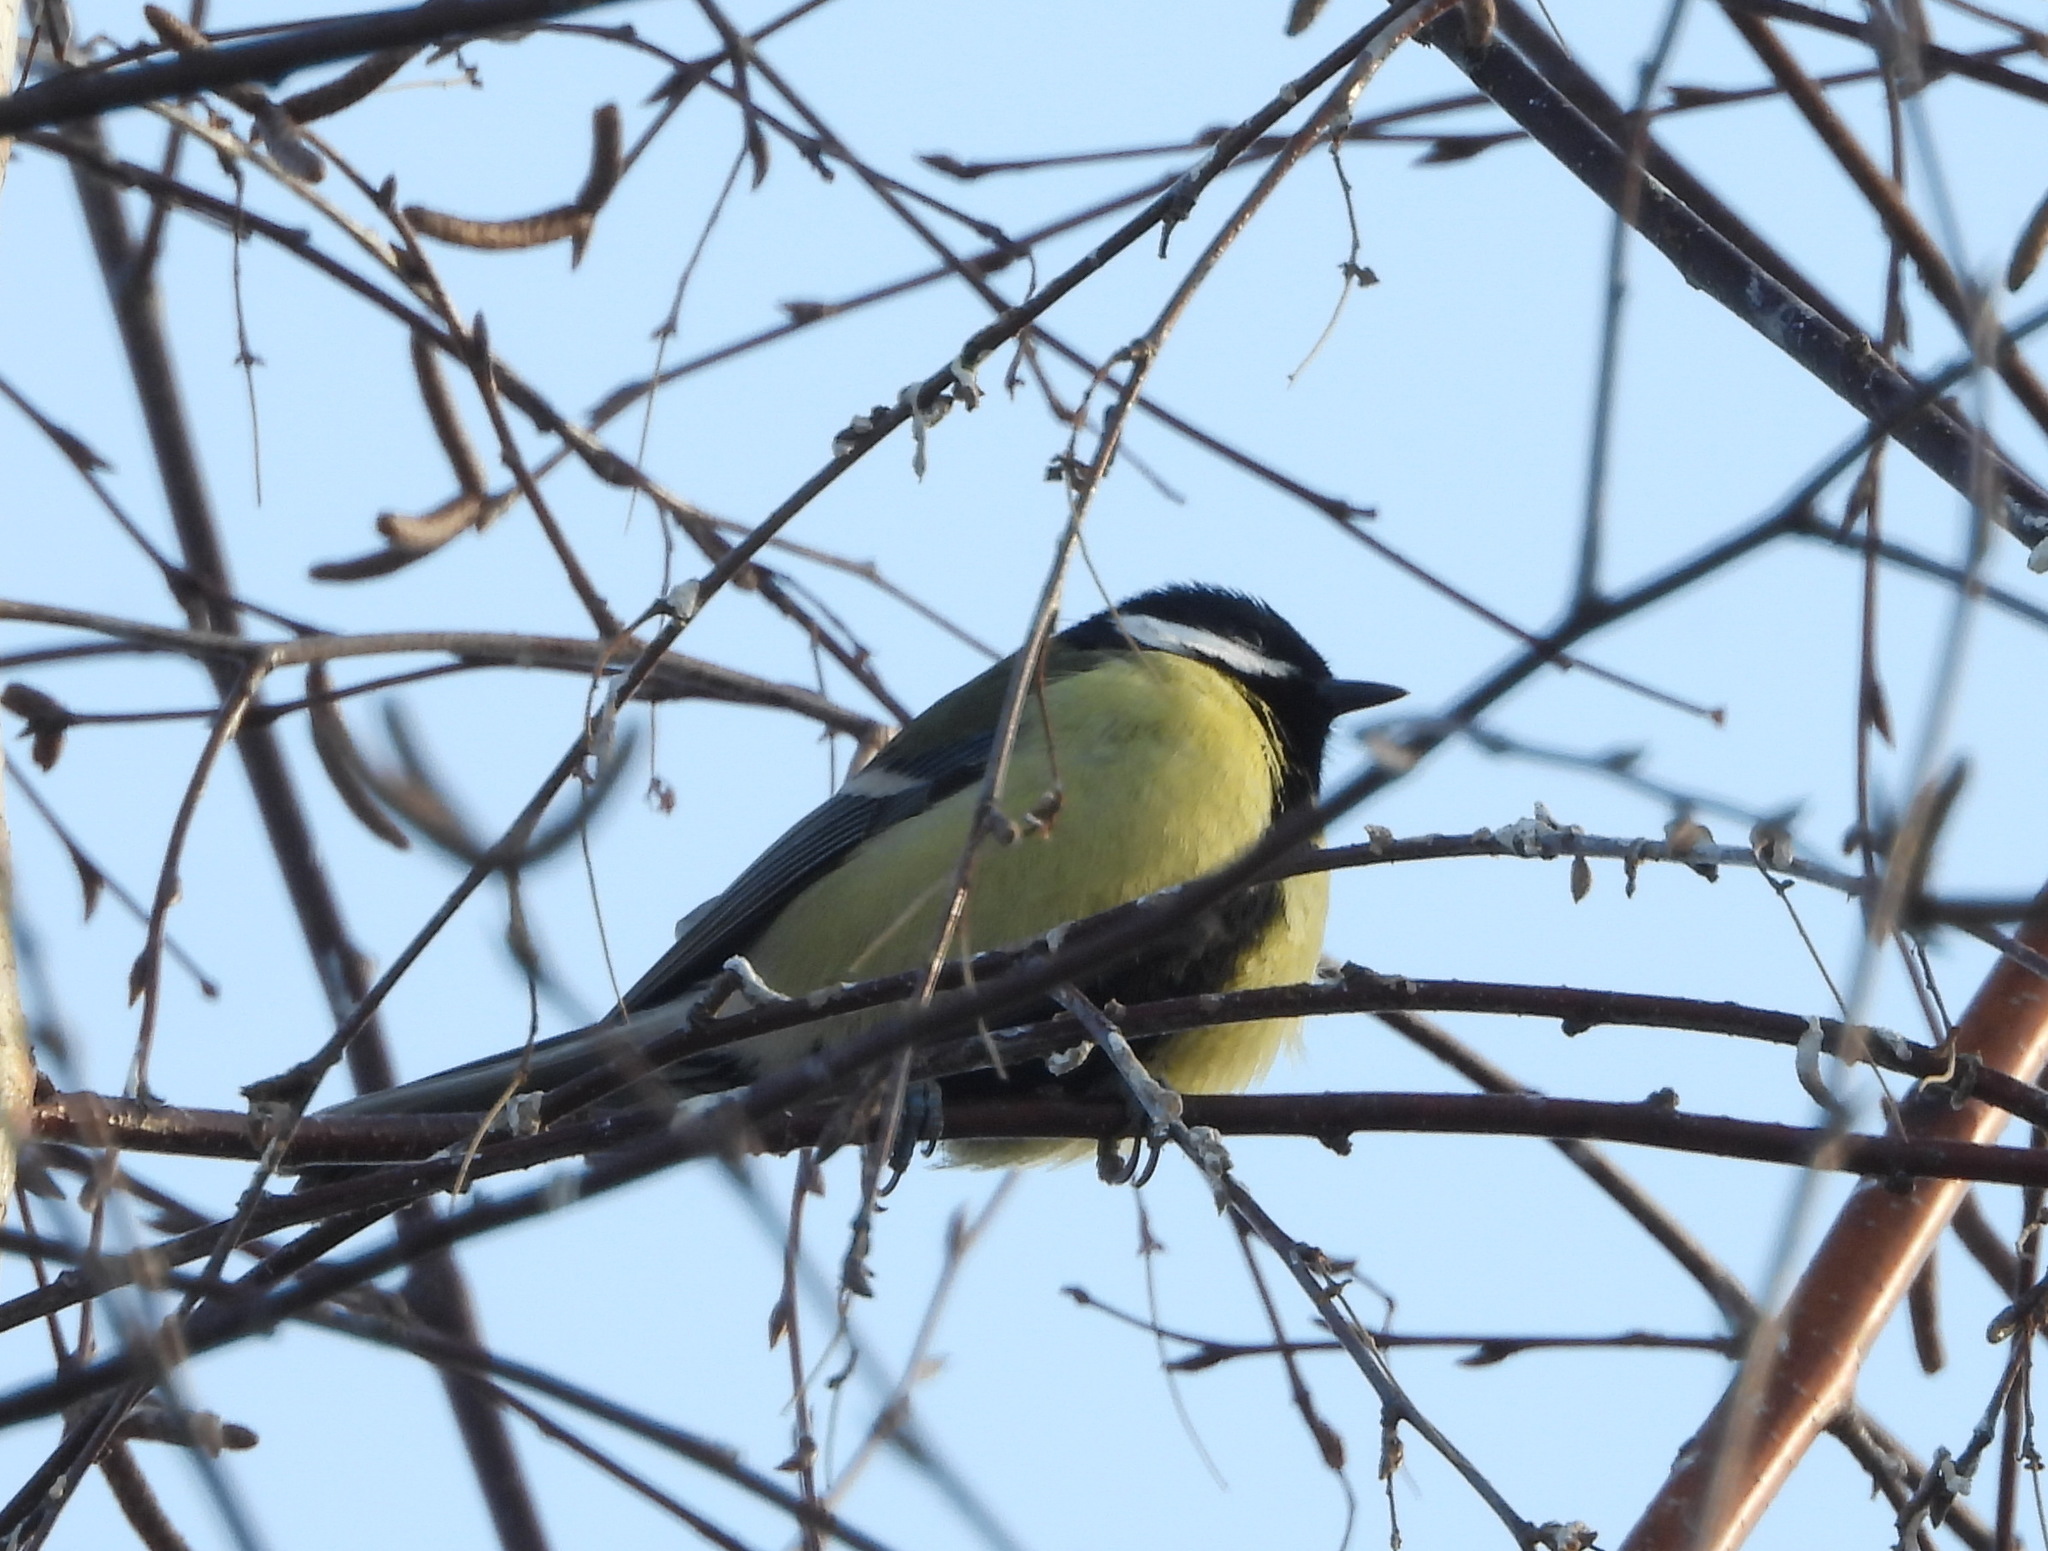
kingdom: Animalia
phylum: Chordata
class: Aves
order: Passeriformes
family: Paridae
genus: Parus
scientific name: Parus major
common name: Great tit
